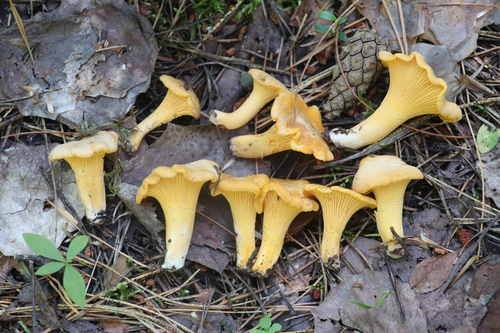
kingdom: Fungi
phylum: Basidiomycota
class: Agaricomycetes
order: Cantharellales
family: Hydnaceae
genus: Cantharellus
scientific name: Cantharellus cibarius
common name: Chanterelle
